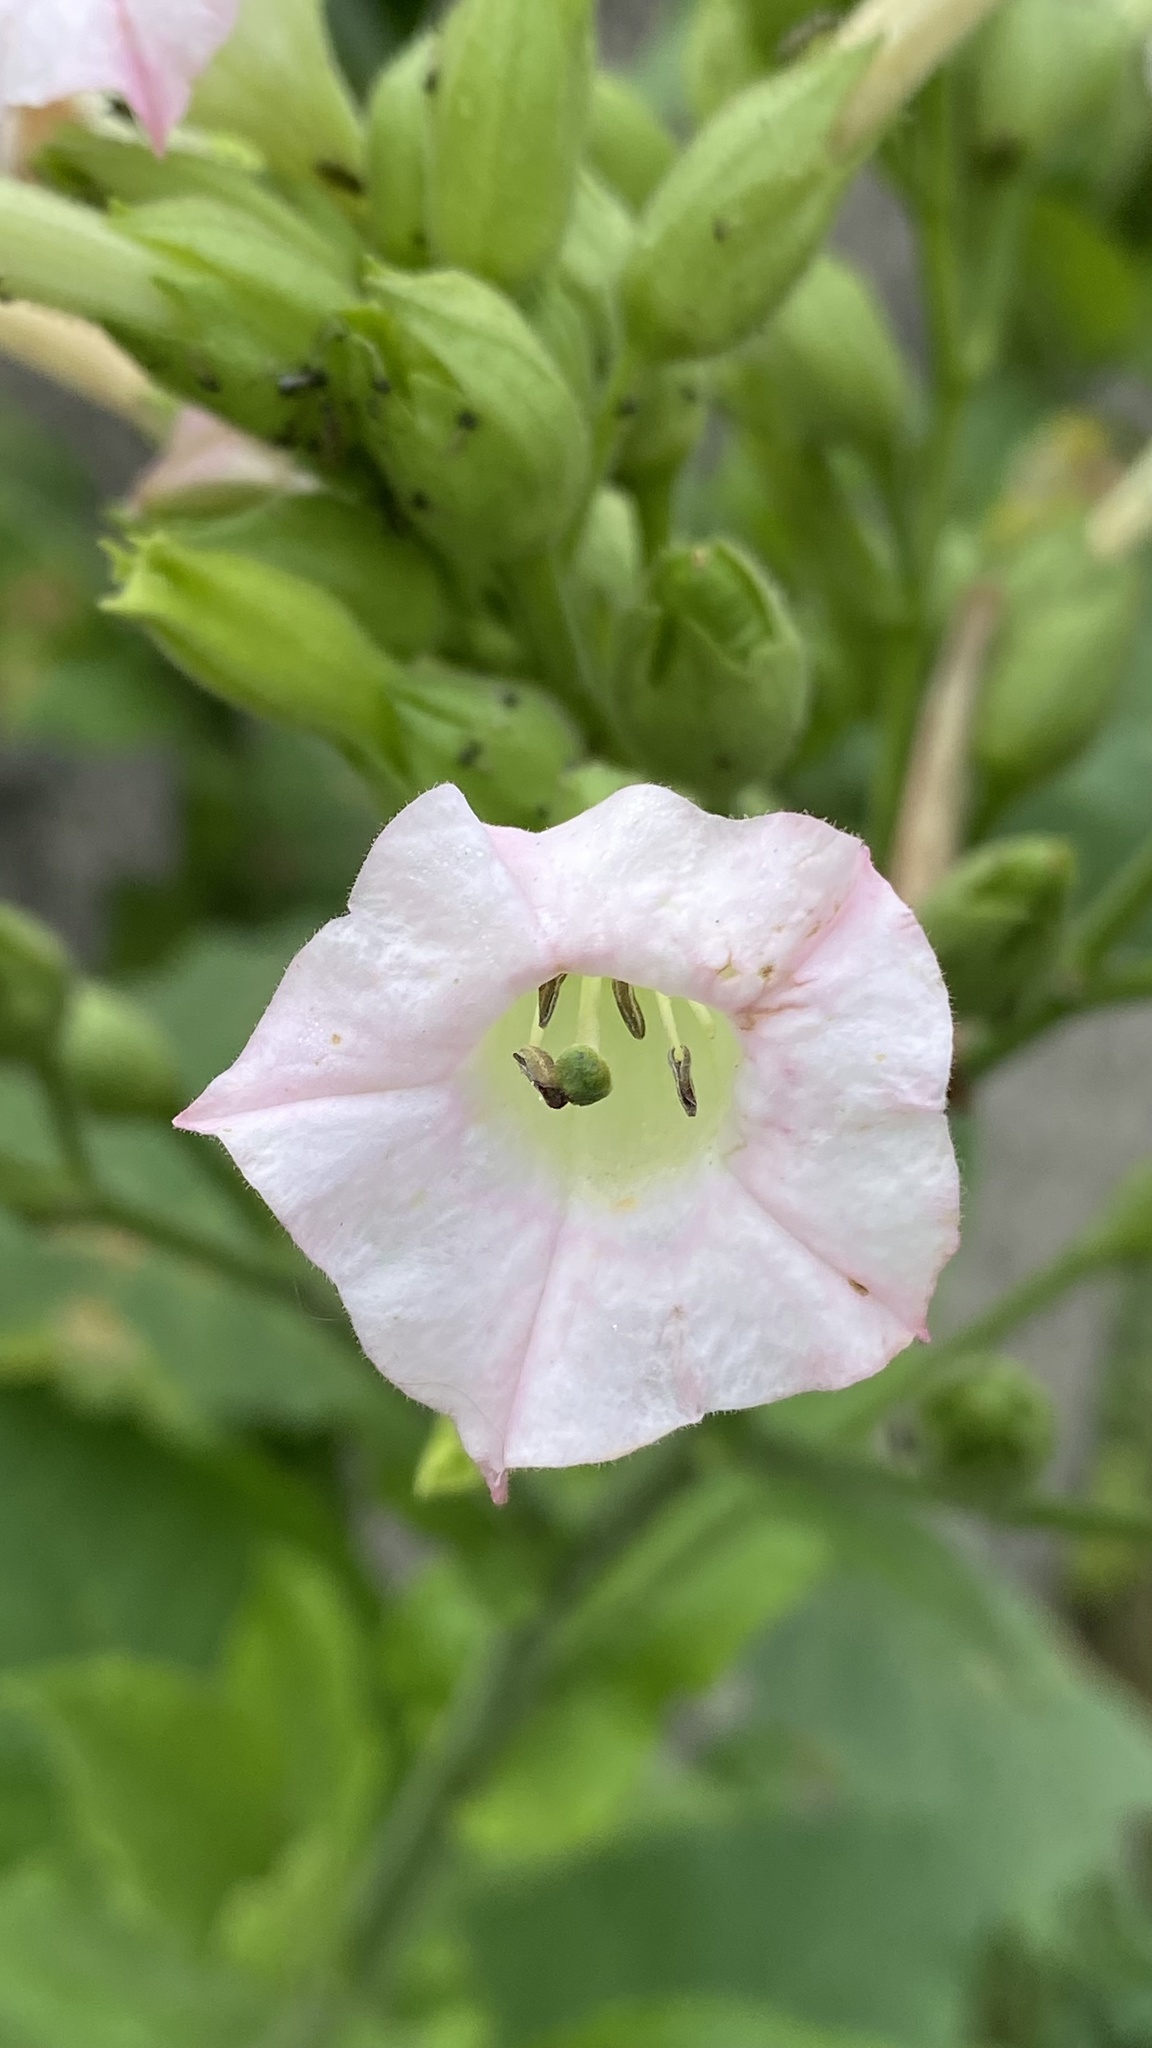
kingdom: Plantae
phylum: Tracheophyta
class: Magnoliopsida
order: Solanales
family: Solanaceae
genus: Nicotiana
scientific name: Nicotiana tabacum
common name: Tobacco
